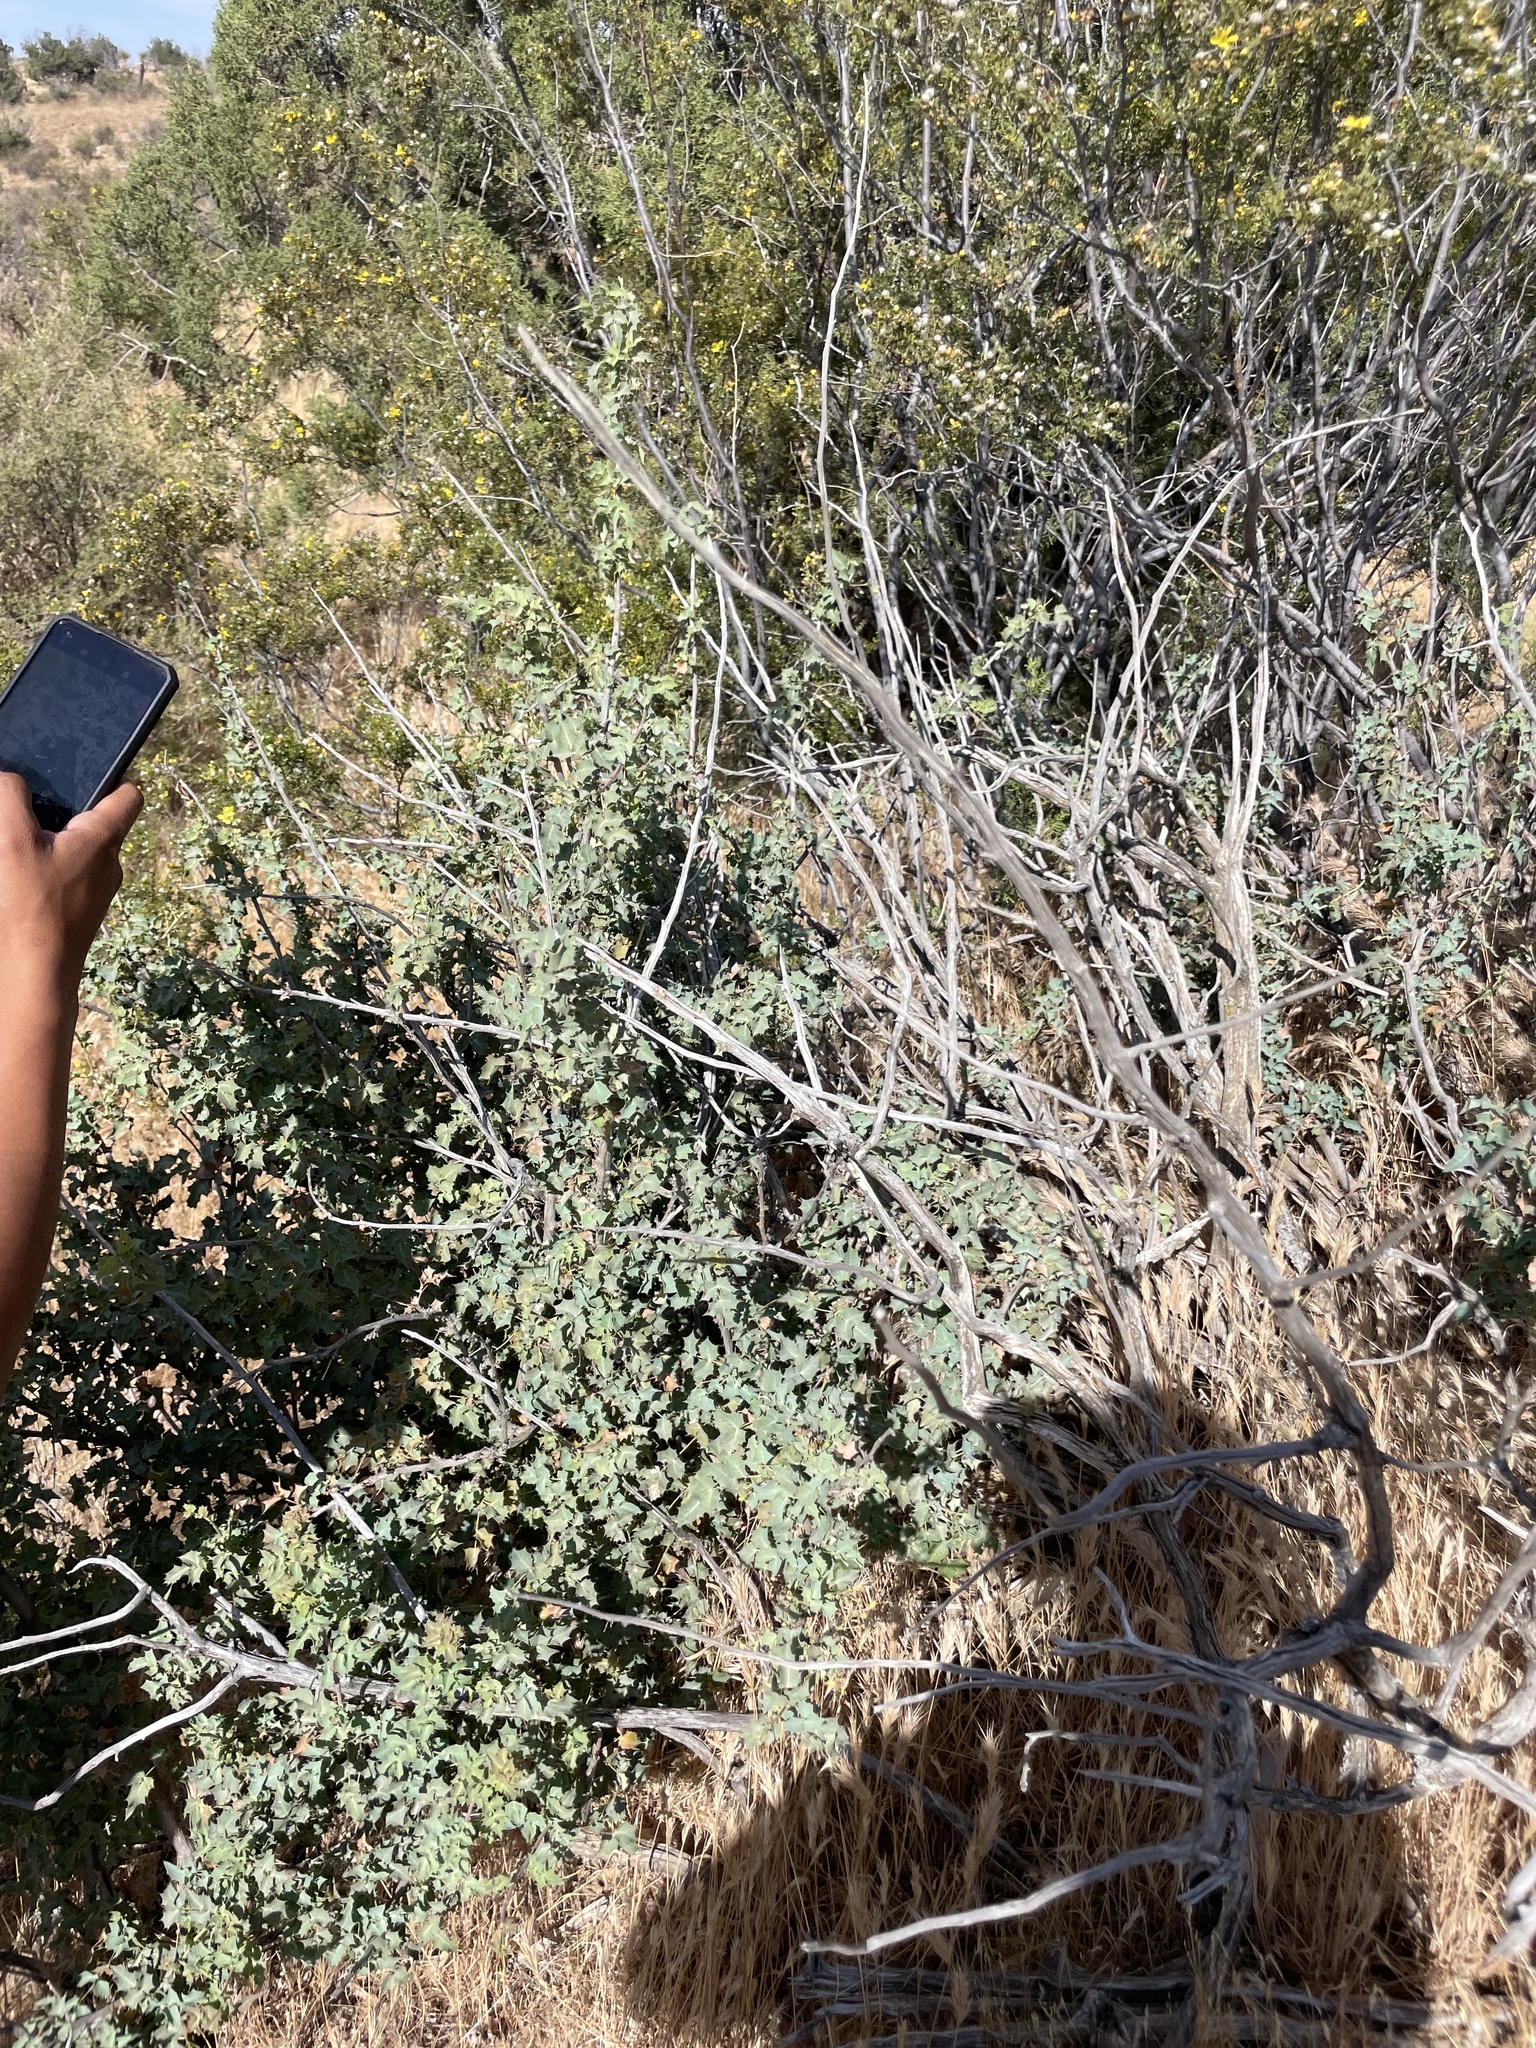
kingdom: Plantae
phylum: Tracheophyta
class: Magnoliopsida
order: Ranunculales
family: Berberidaceae
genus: Alloberberis
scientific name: Alloberberis fremontii
